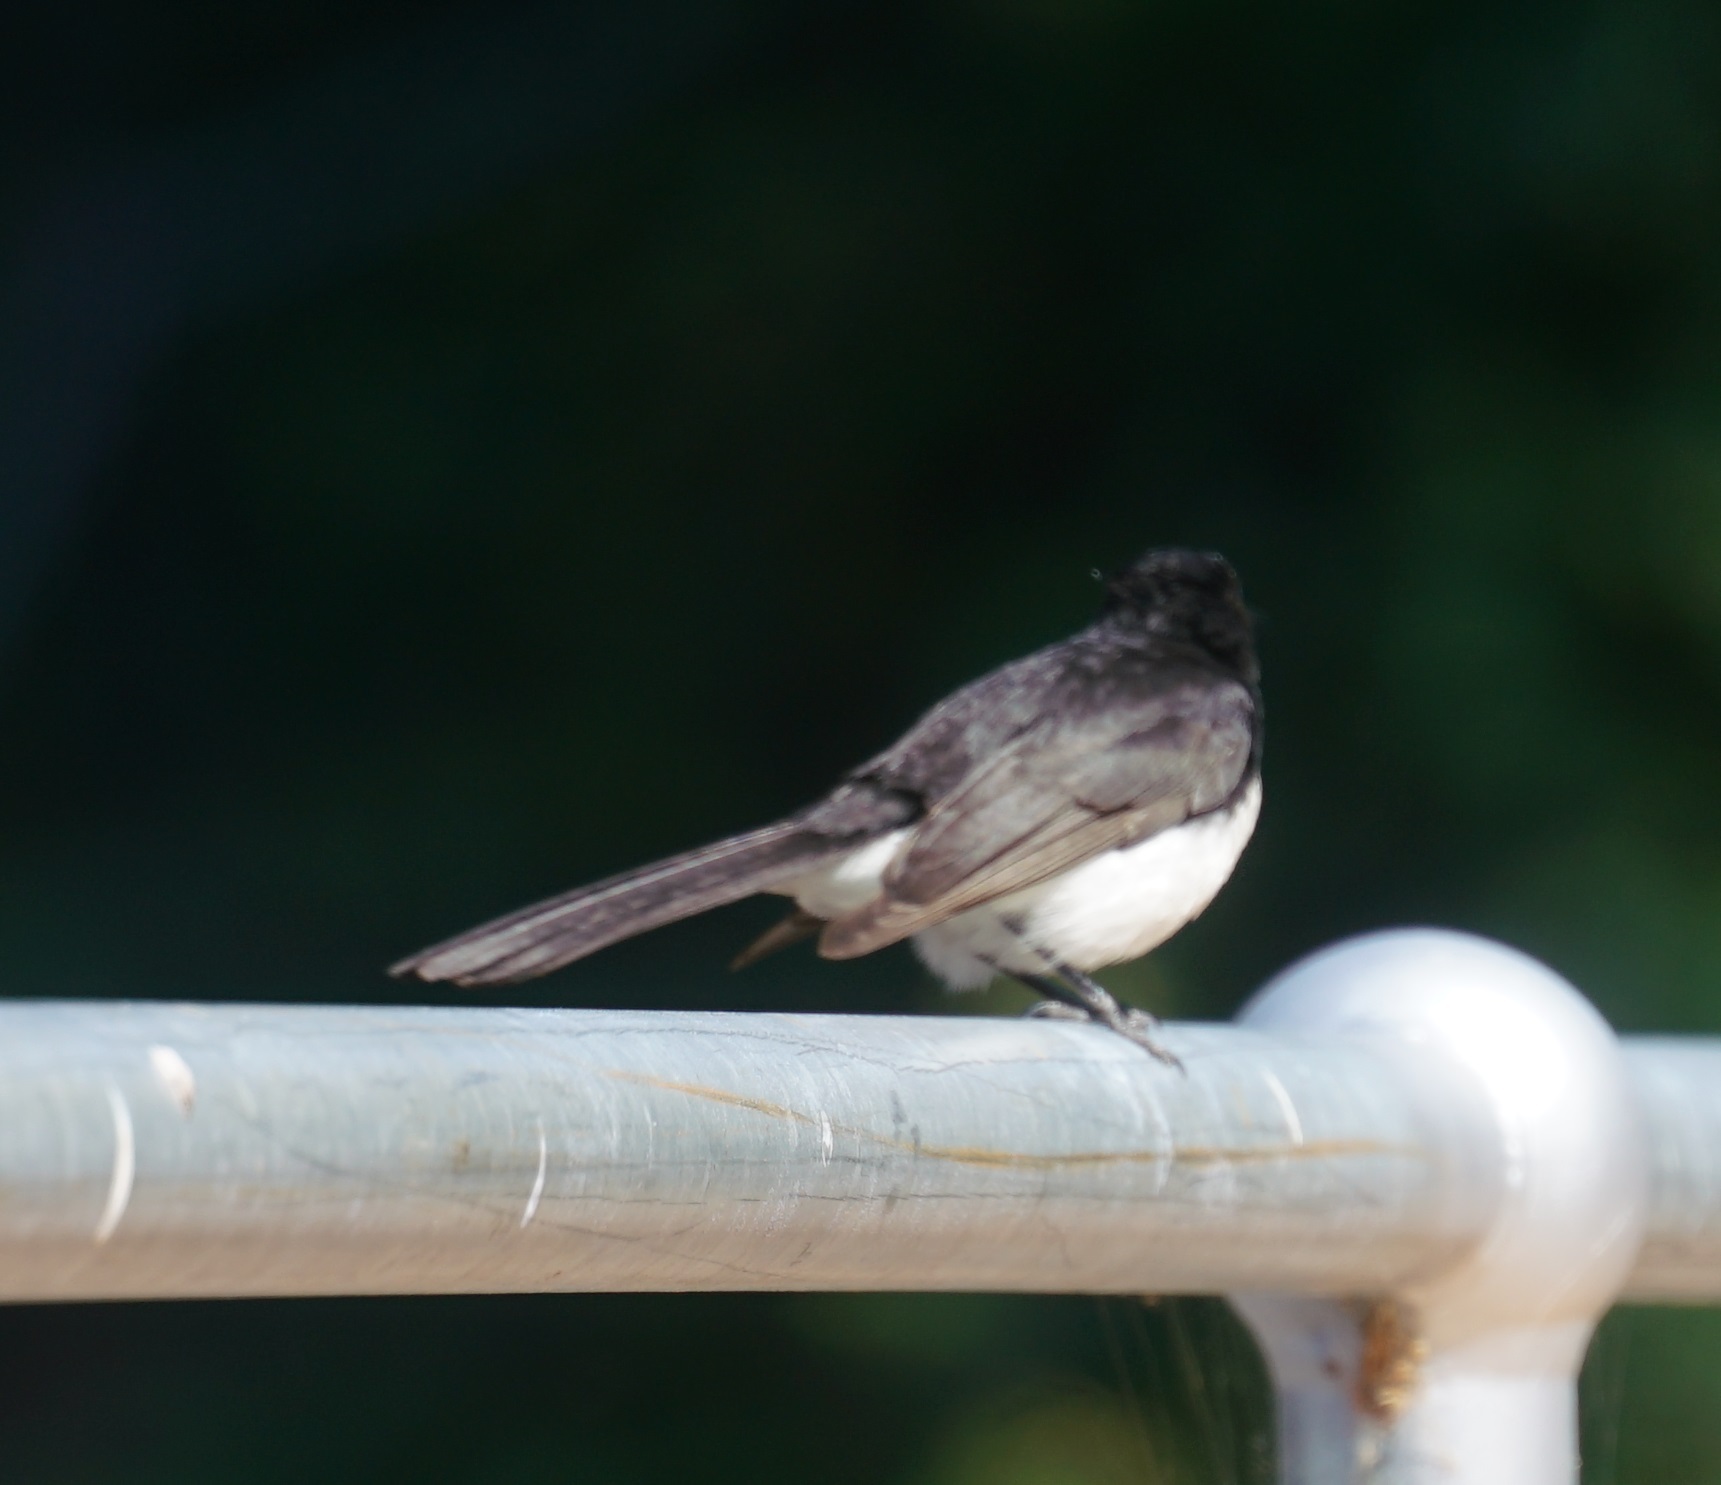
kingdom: Animalia
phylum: Chordata
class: Aves
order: Passeriformes
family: Rhipiduridae
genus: Rhipidura
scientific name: Rhipidura leucophrys
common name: Willie wagtail
